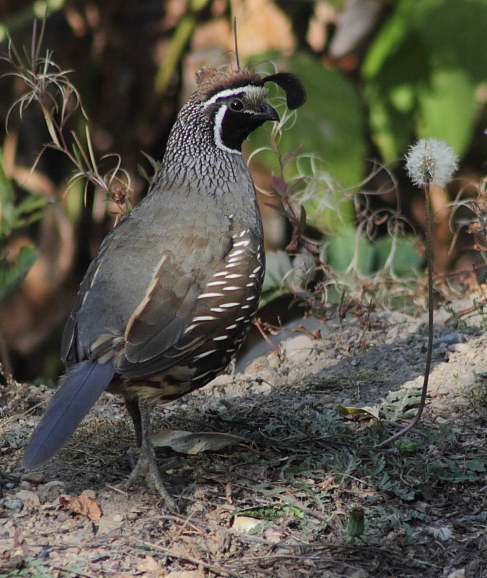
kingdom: Animalia
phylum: Chordata
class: Aves
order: Galliformes
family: Odontophoridae
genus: Callipepla
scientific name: Callipepla californica
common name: California quail
